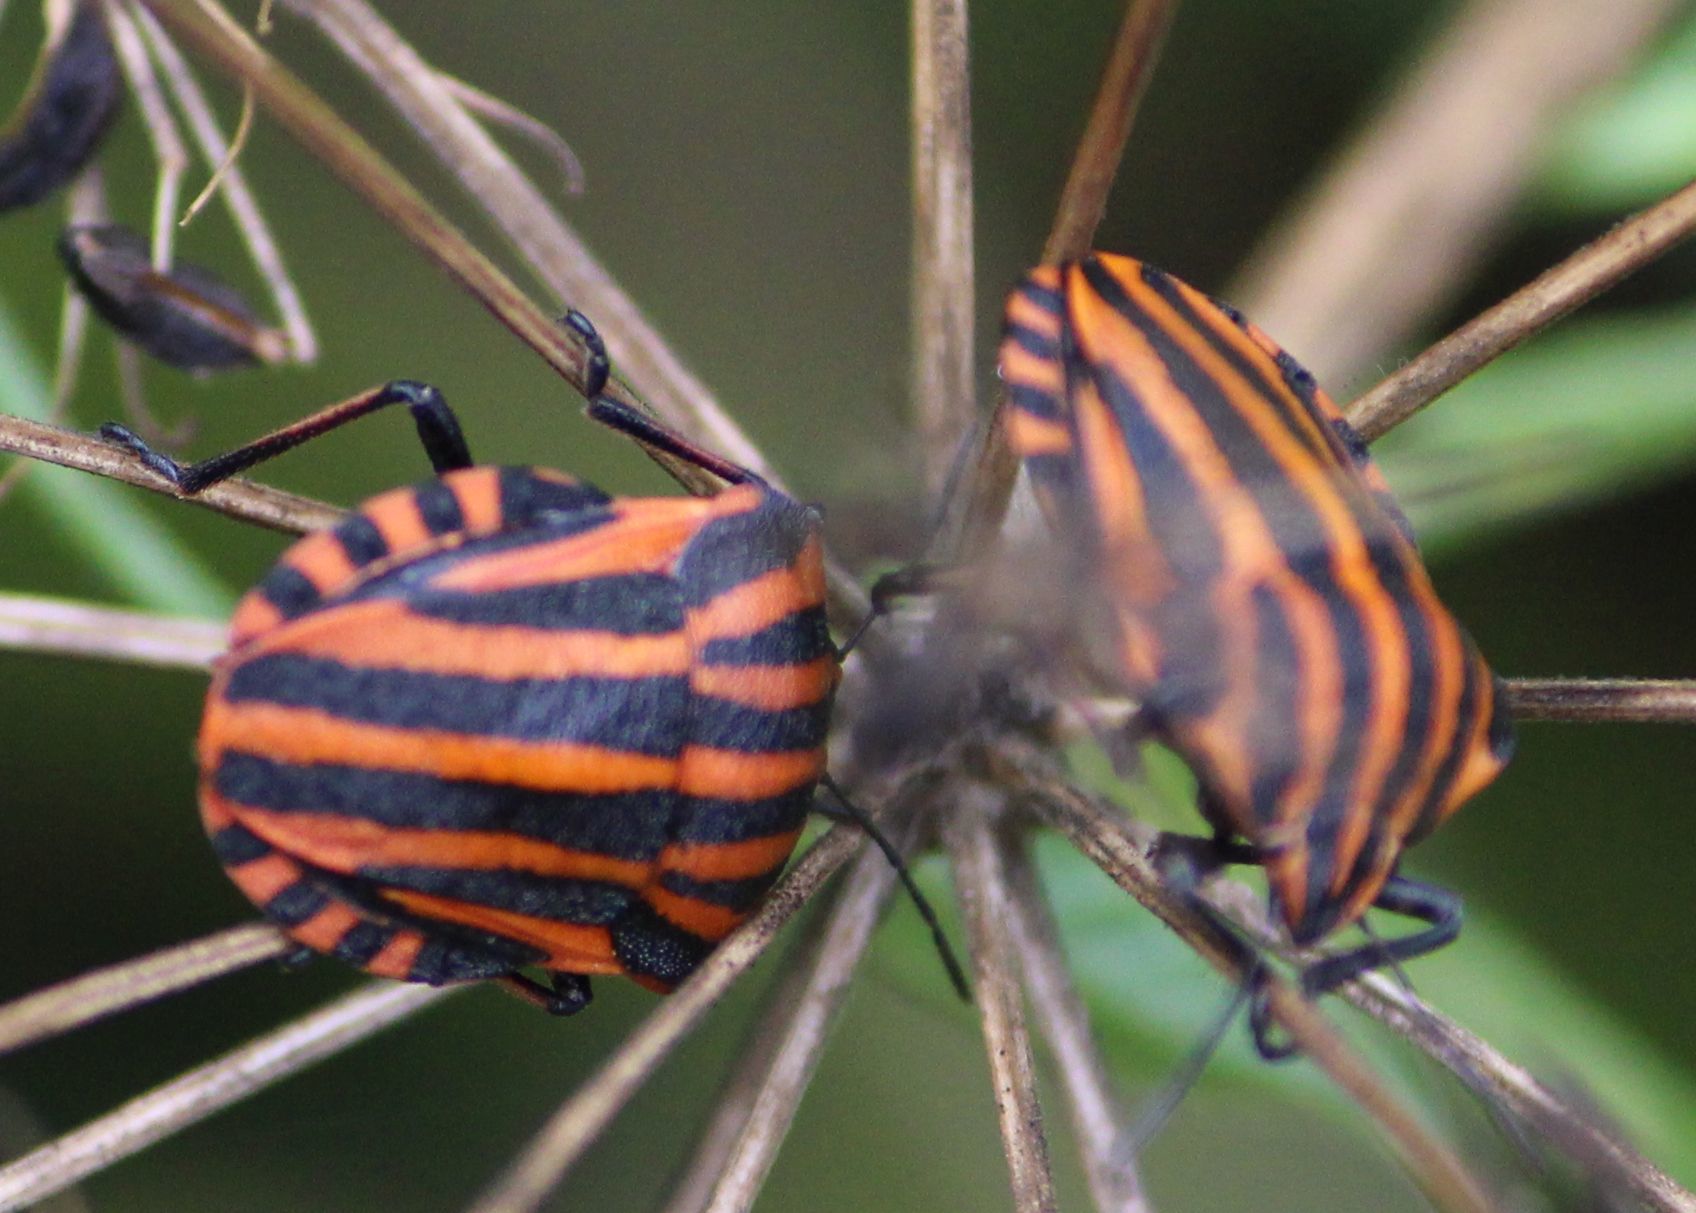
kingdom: Animalia
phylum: Arthropoda
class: Insecta
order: Hemiptera
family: Pentatomidae
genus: Graphosoma
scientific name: Graphosoma italicum
